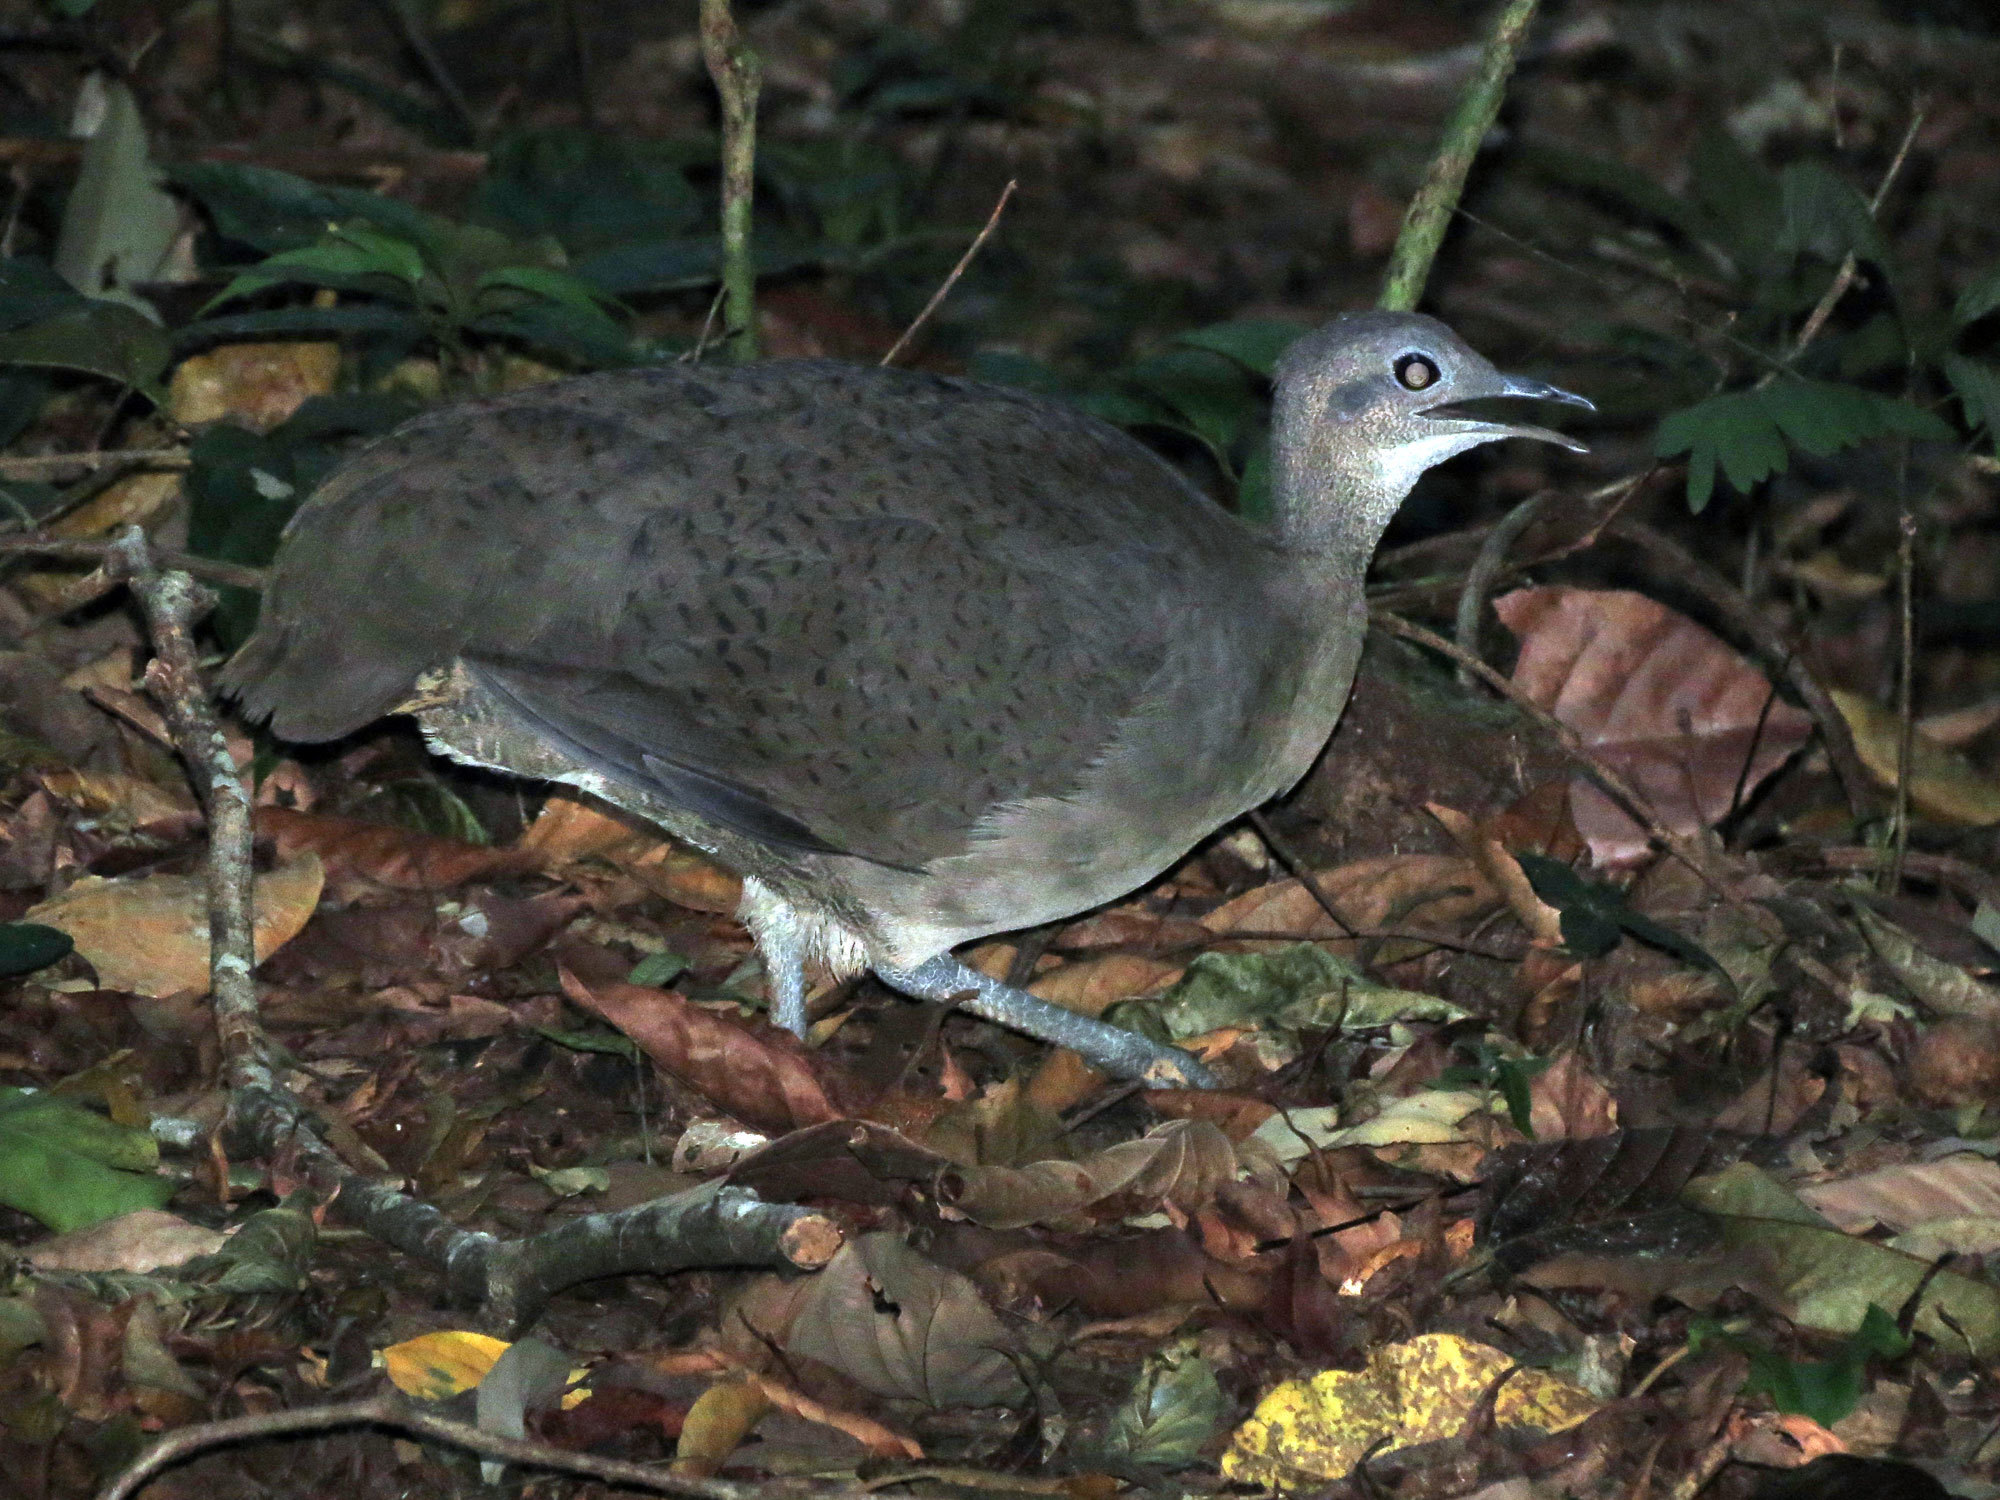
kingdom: Animalia
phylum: Chordata
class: Aves
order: Tinamiformes
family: Tinamidae
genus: Tinamus
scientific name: Tinamus major
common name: Great tinamou
